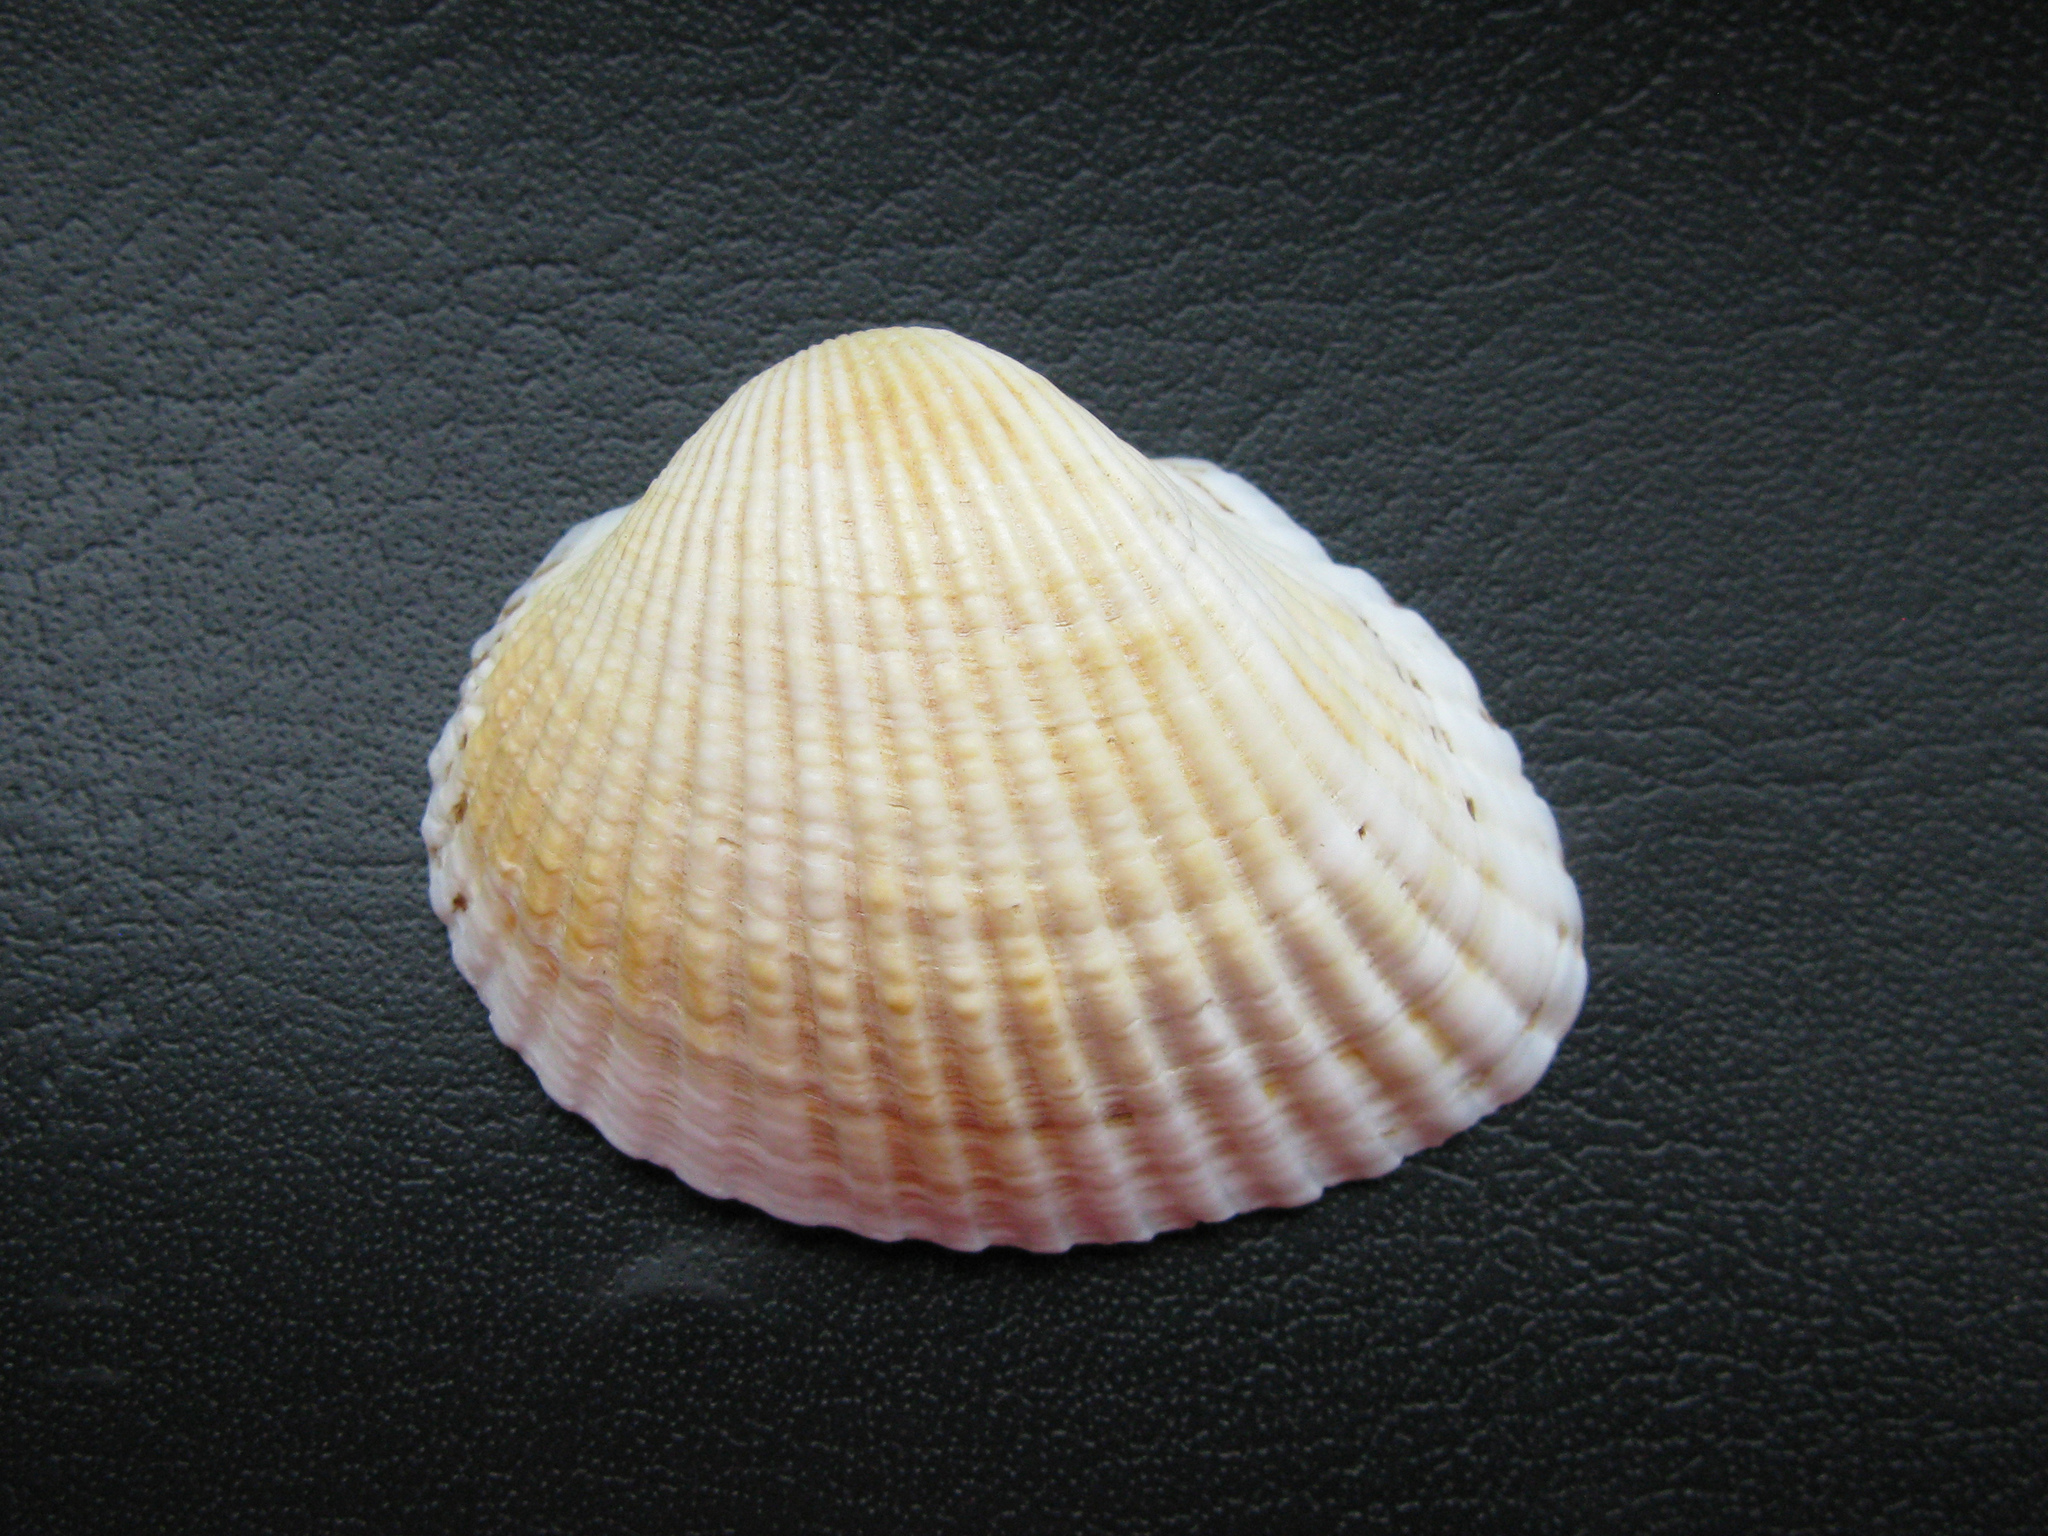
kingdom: Animalia
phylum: Mollusca
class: Bivalvia
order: Arcida
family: Arcidae
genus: Anadara
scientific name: Anadara kagoshimensis
